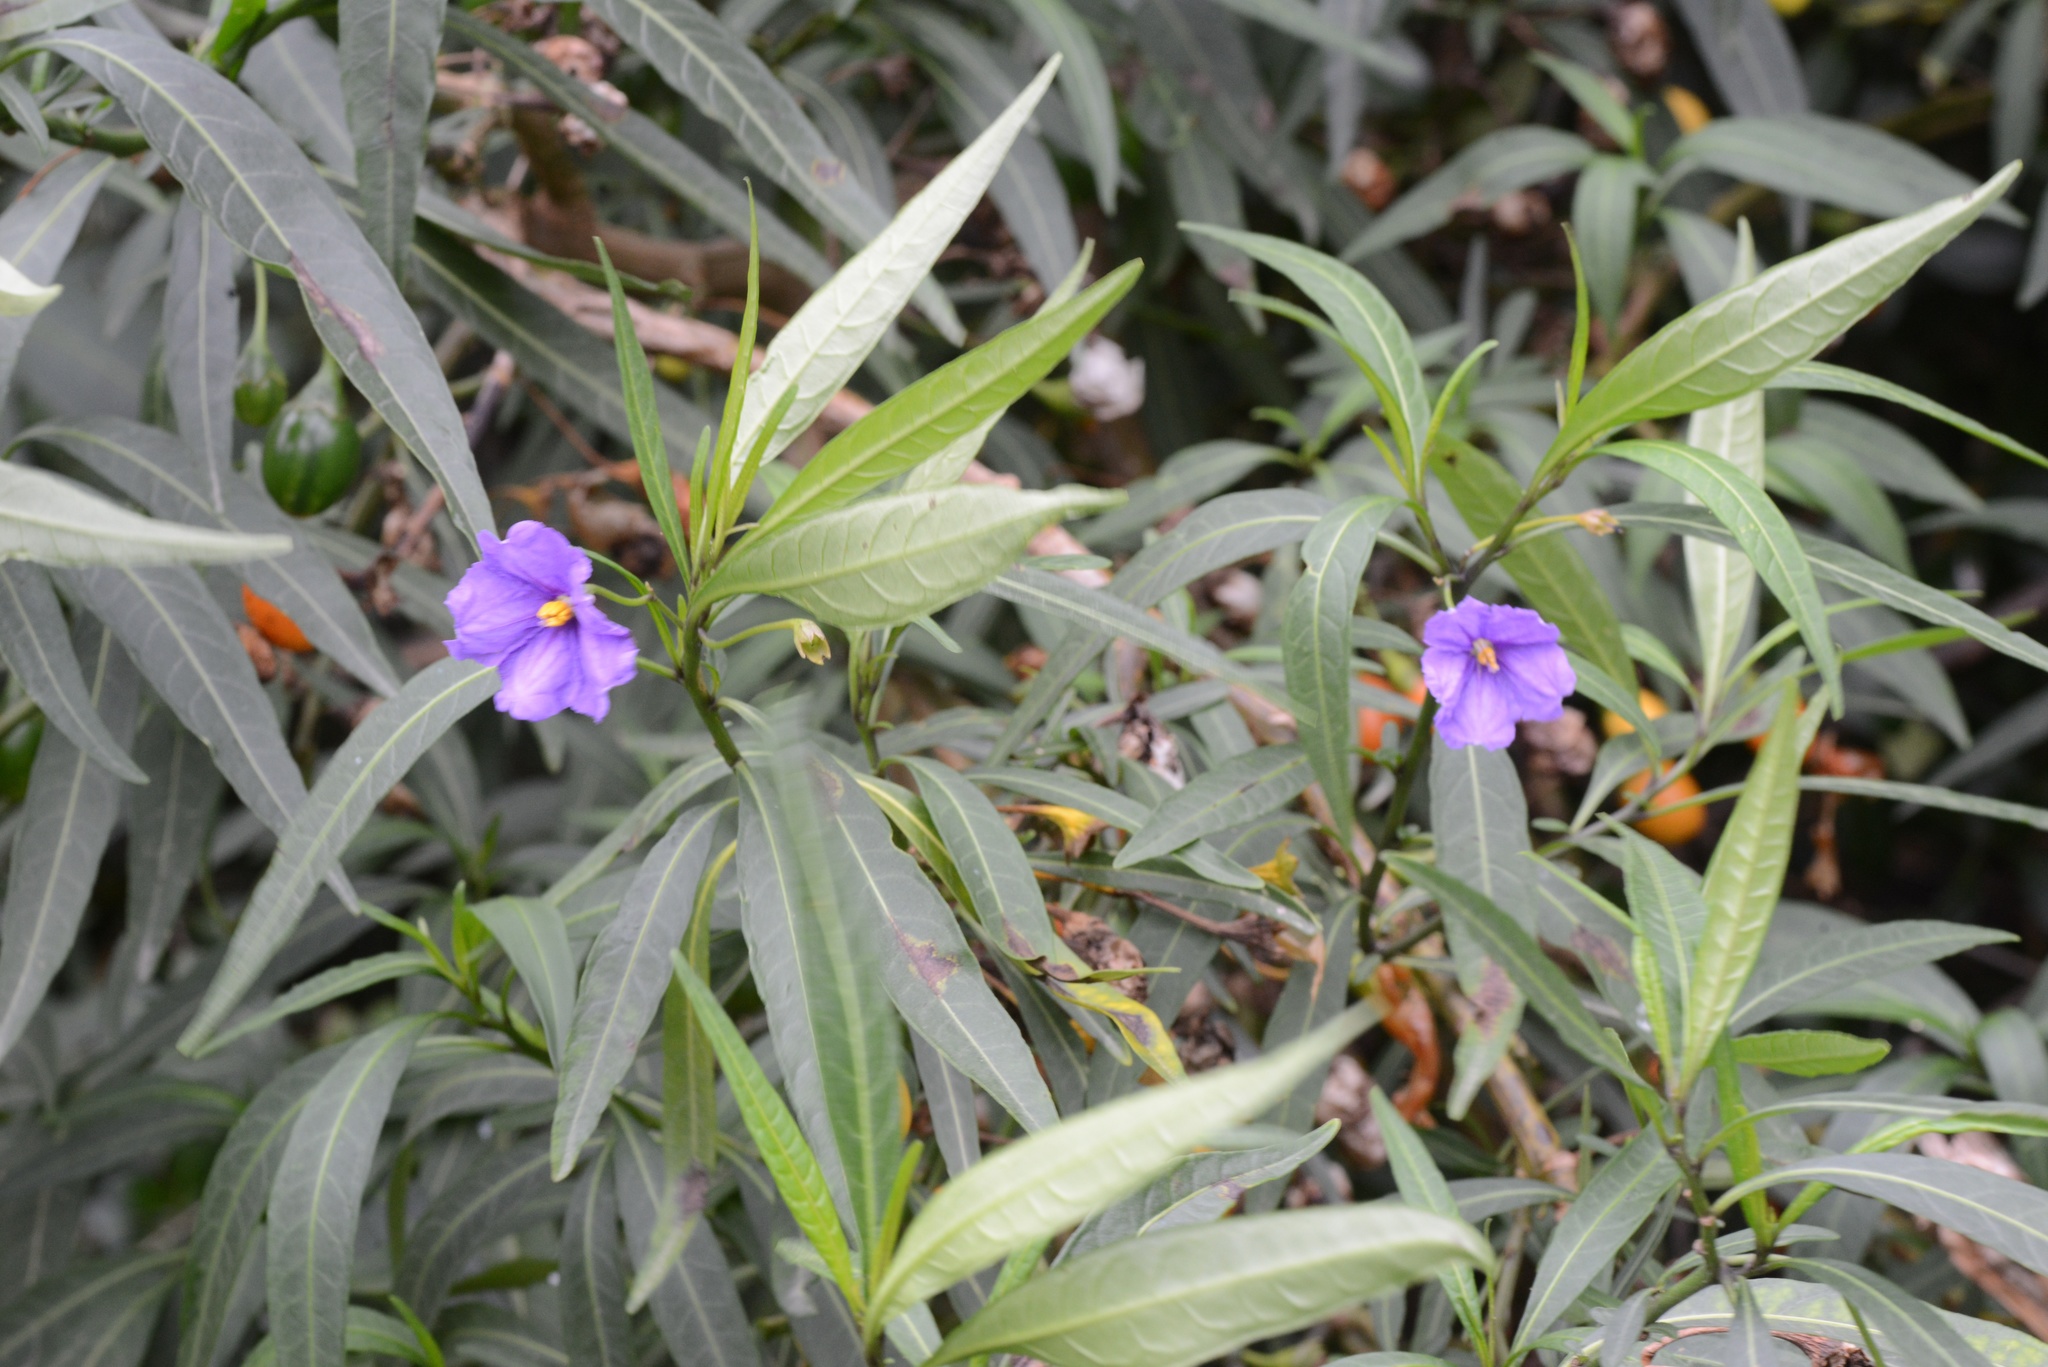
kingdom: Plantae
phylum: Tracheophyta
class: Magnoliopsida
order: Solanales
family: Solanaceae
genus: Solanum
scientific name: Solanum laciniatum
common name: Kangaroo-apple
